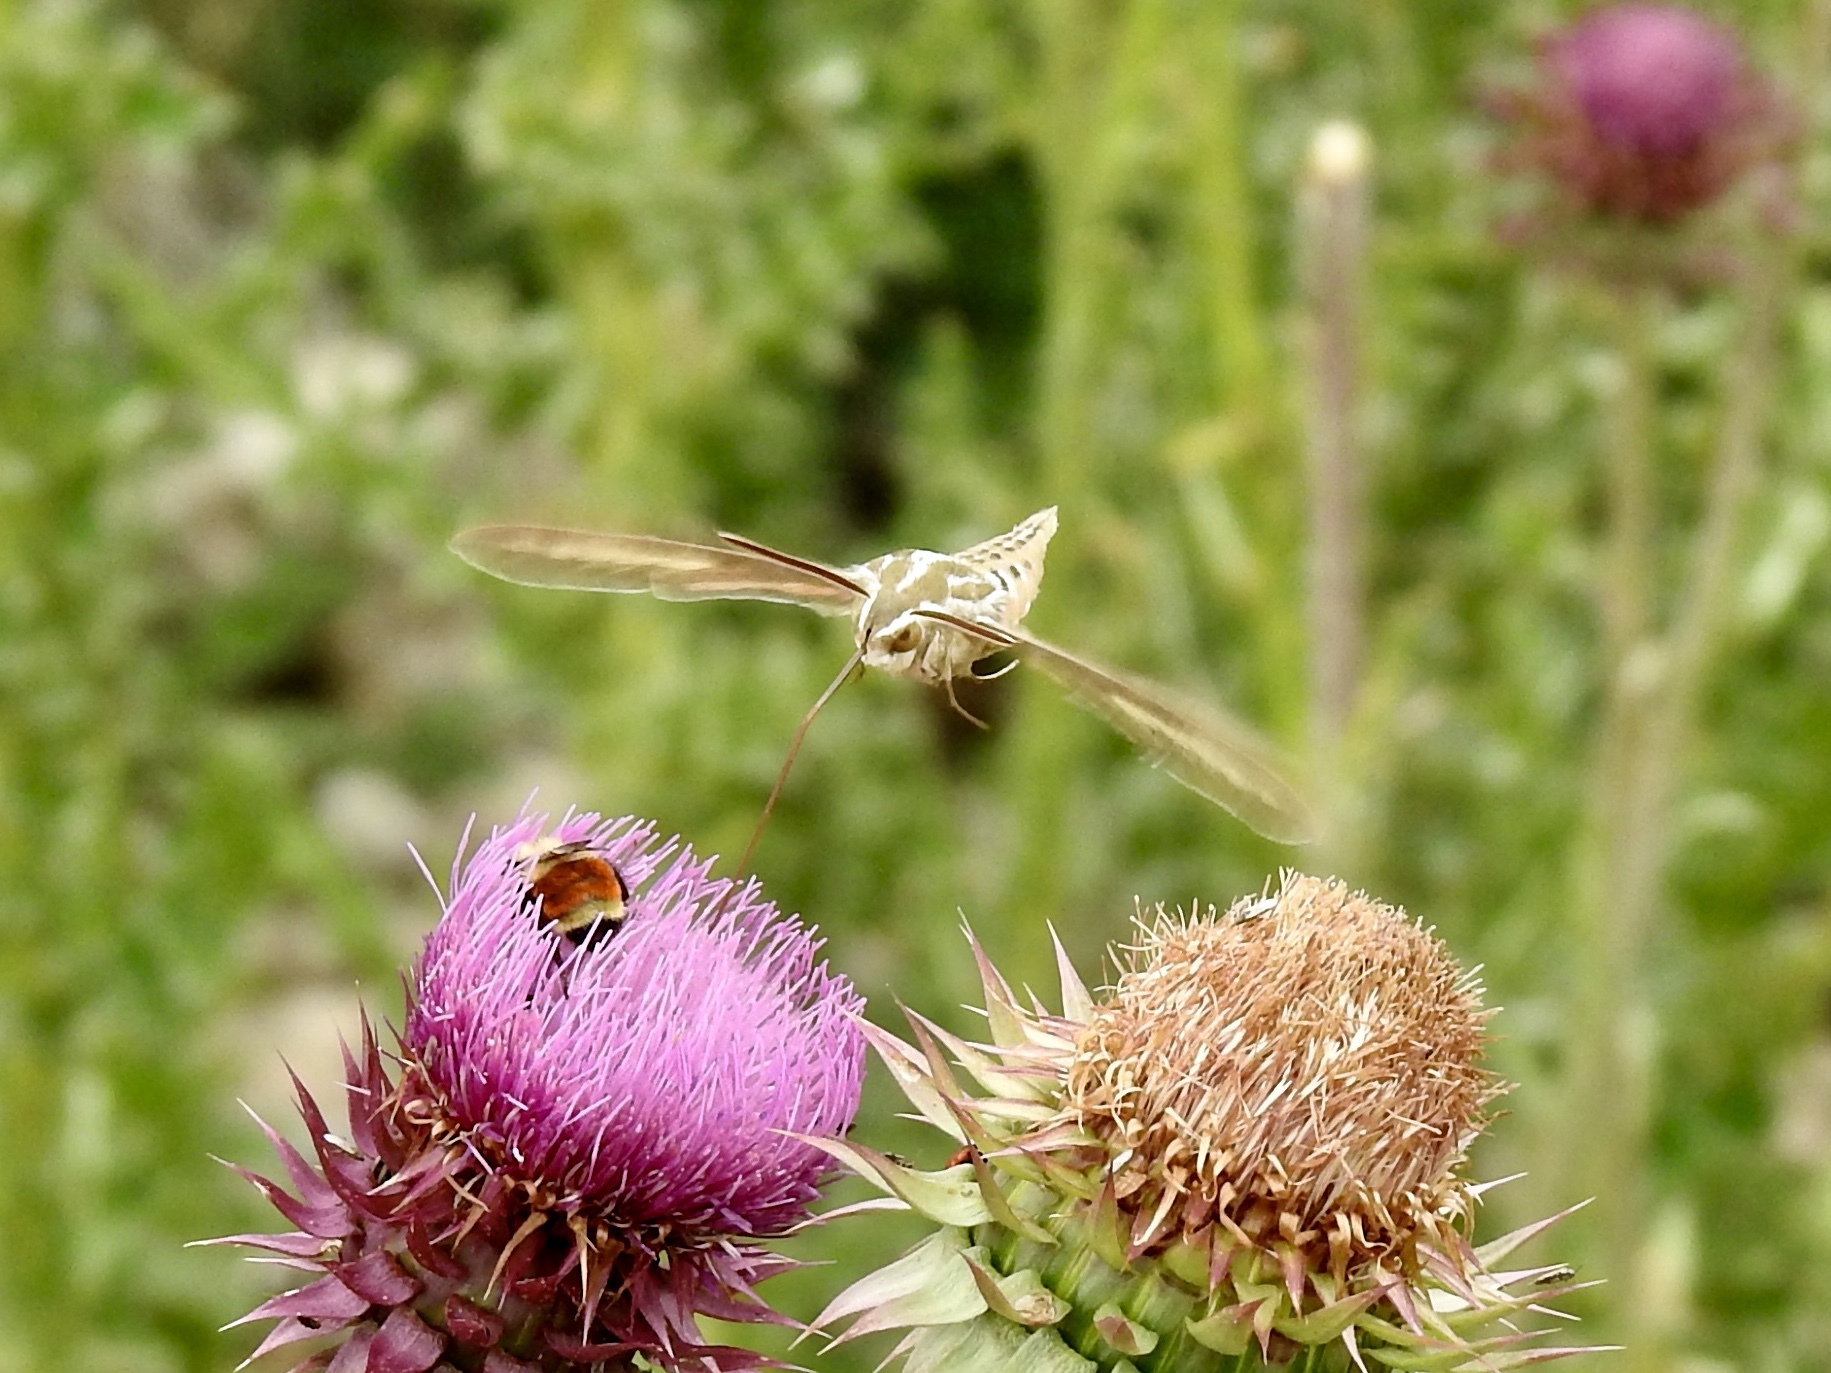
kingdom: Animalia
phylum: Arthropoda
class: Insecta
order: Lepidoptera
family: Sphingidae
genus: Hyles
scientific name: Hyles lineata
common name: White-lined sphinx
